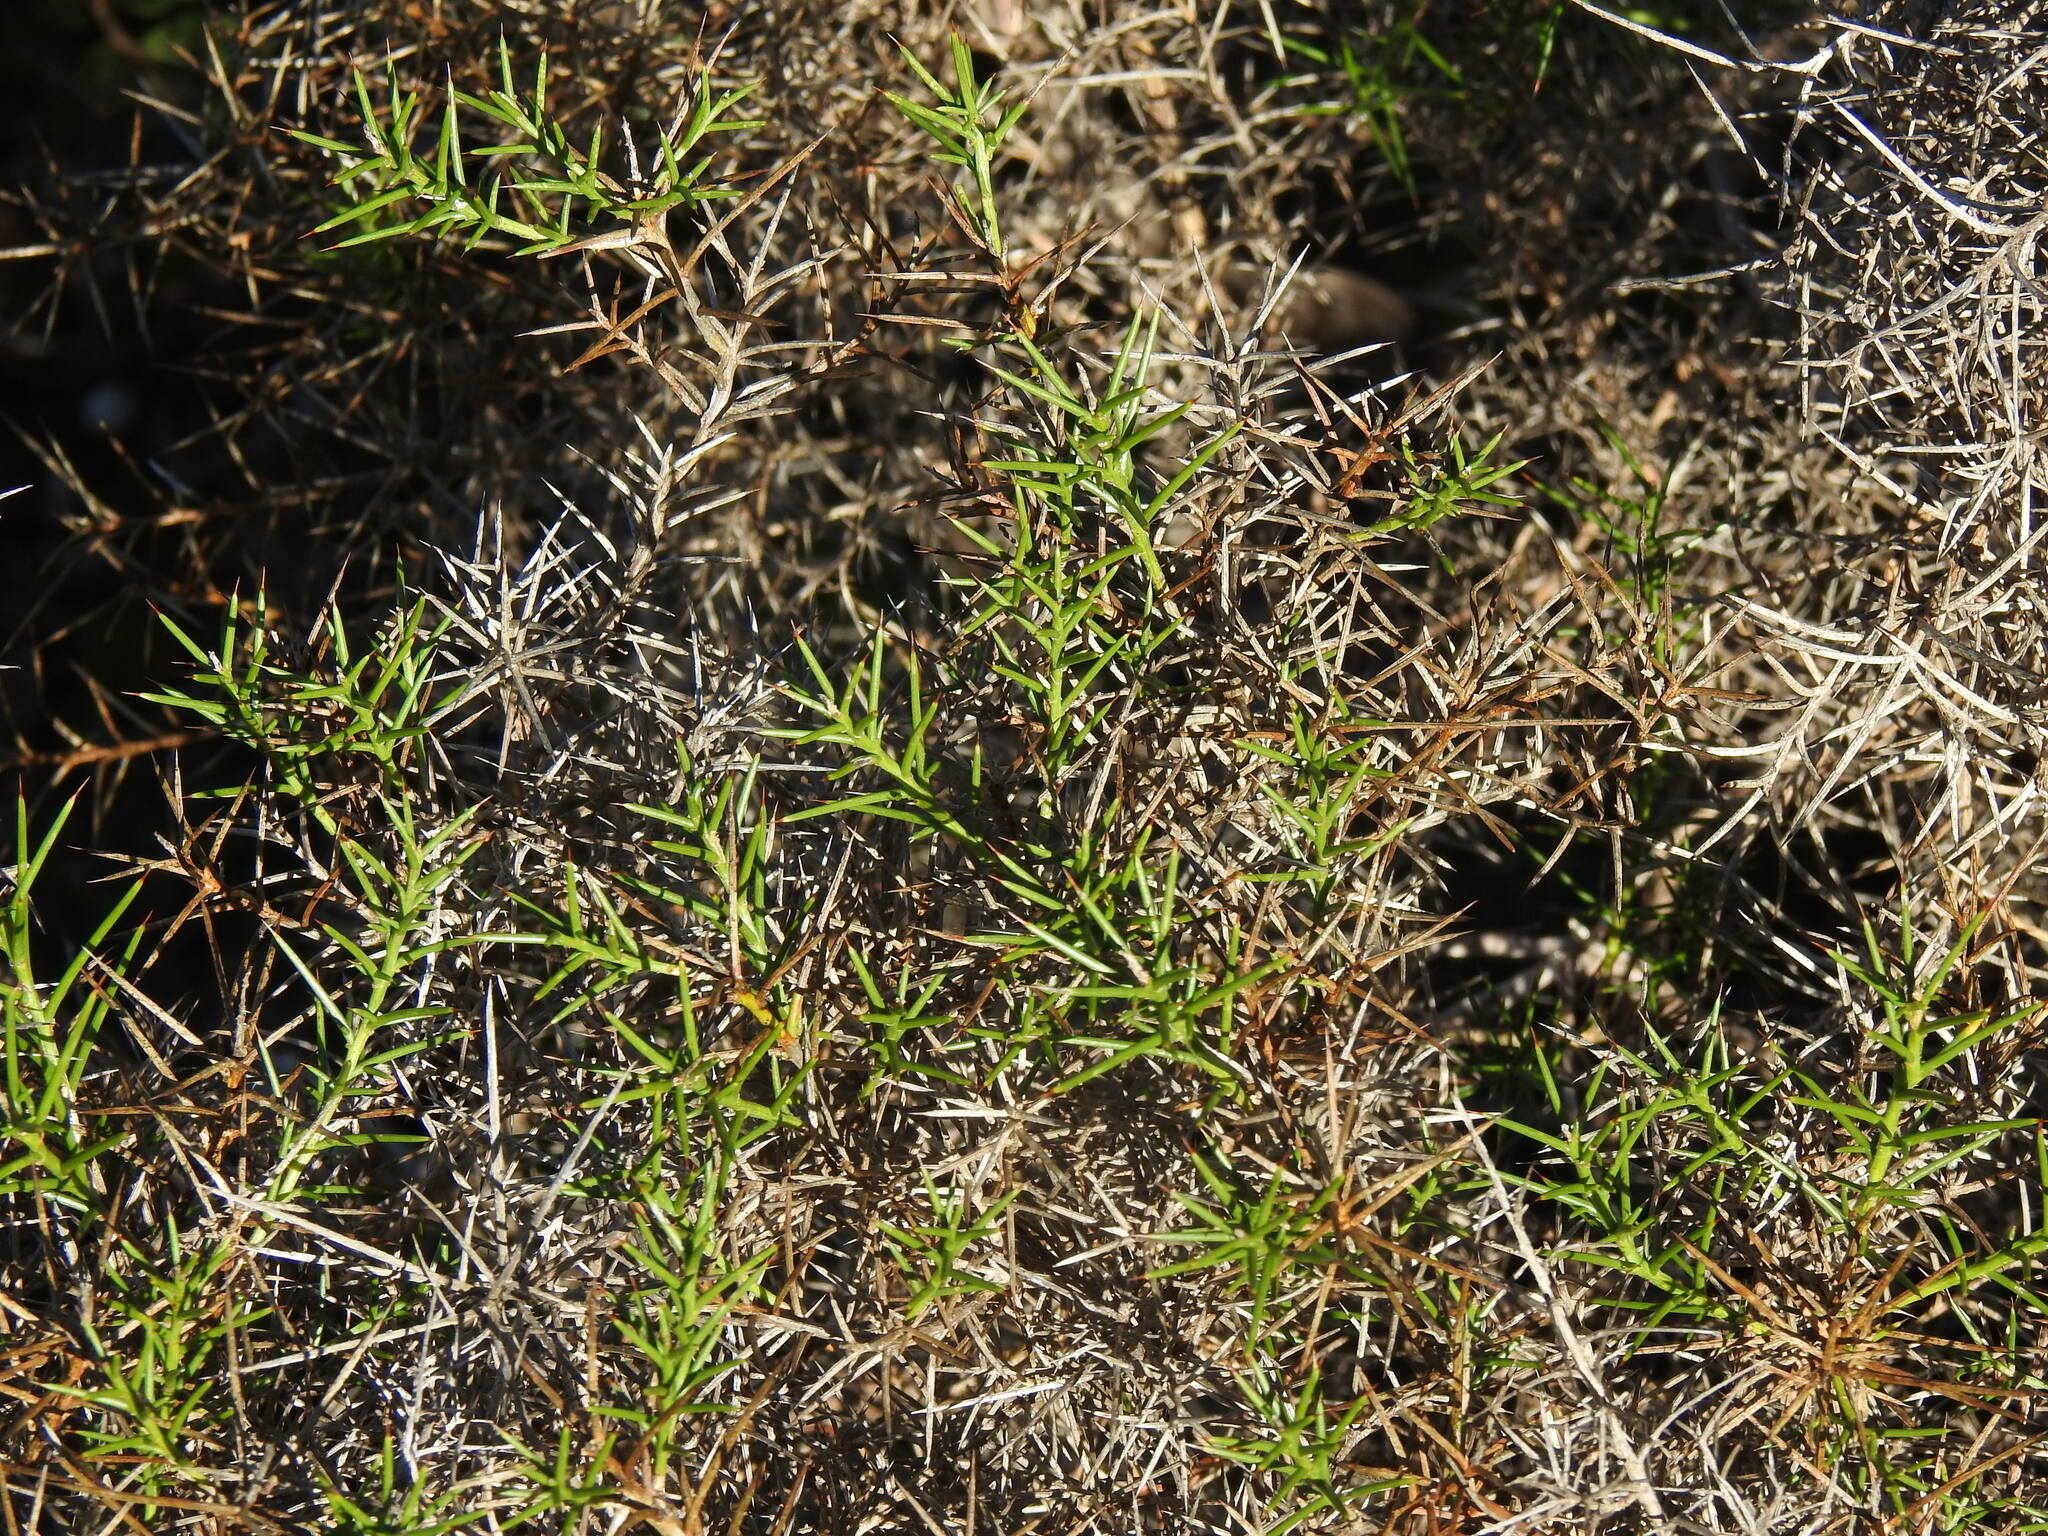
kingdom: Plantae
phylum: Tracheophyta
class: Magnoliopsida
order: Fabales
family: Fabaceae
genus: Genista
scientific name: Genista hirsuta
